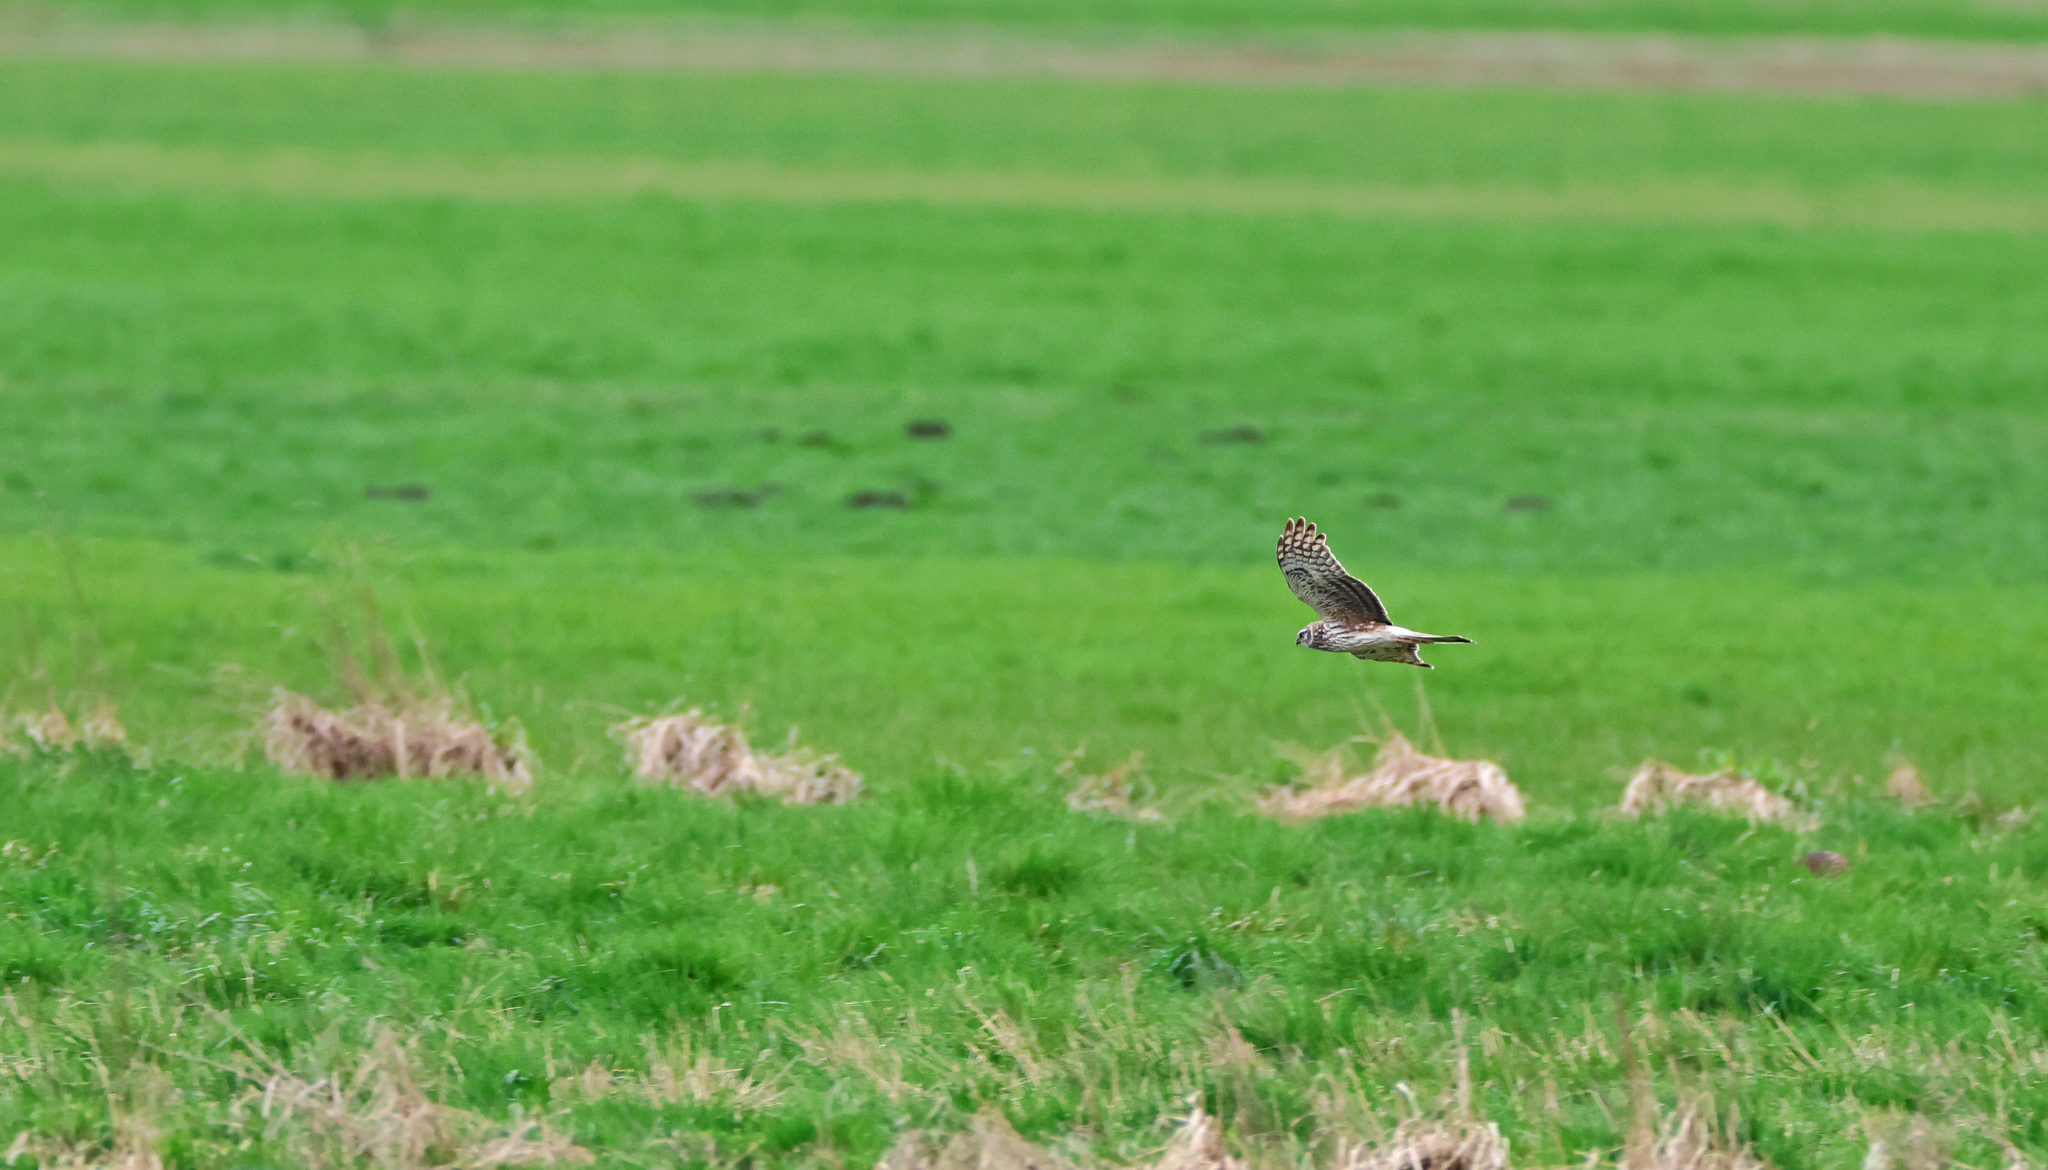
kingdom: Animalia
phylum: Chordata
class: Aves
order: Accipitriformes
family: Accipitridae
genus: Circus
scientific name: Circus cyaneus
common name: Hen harrier
